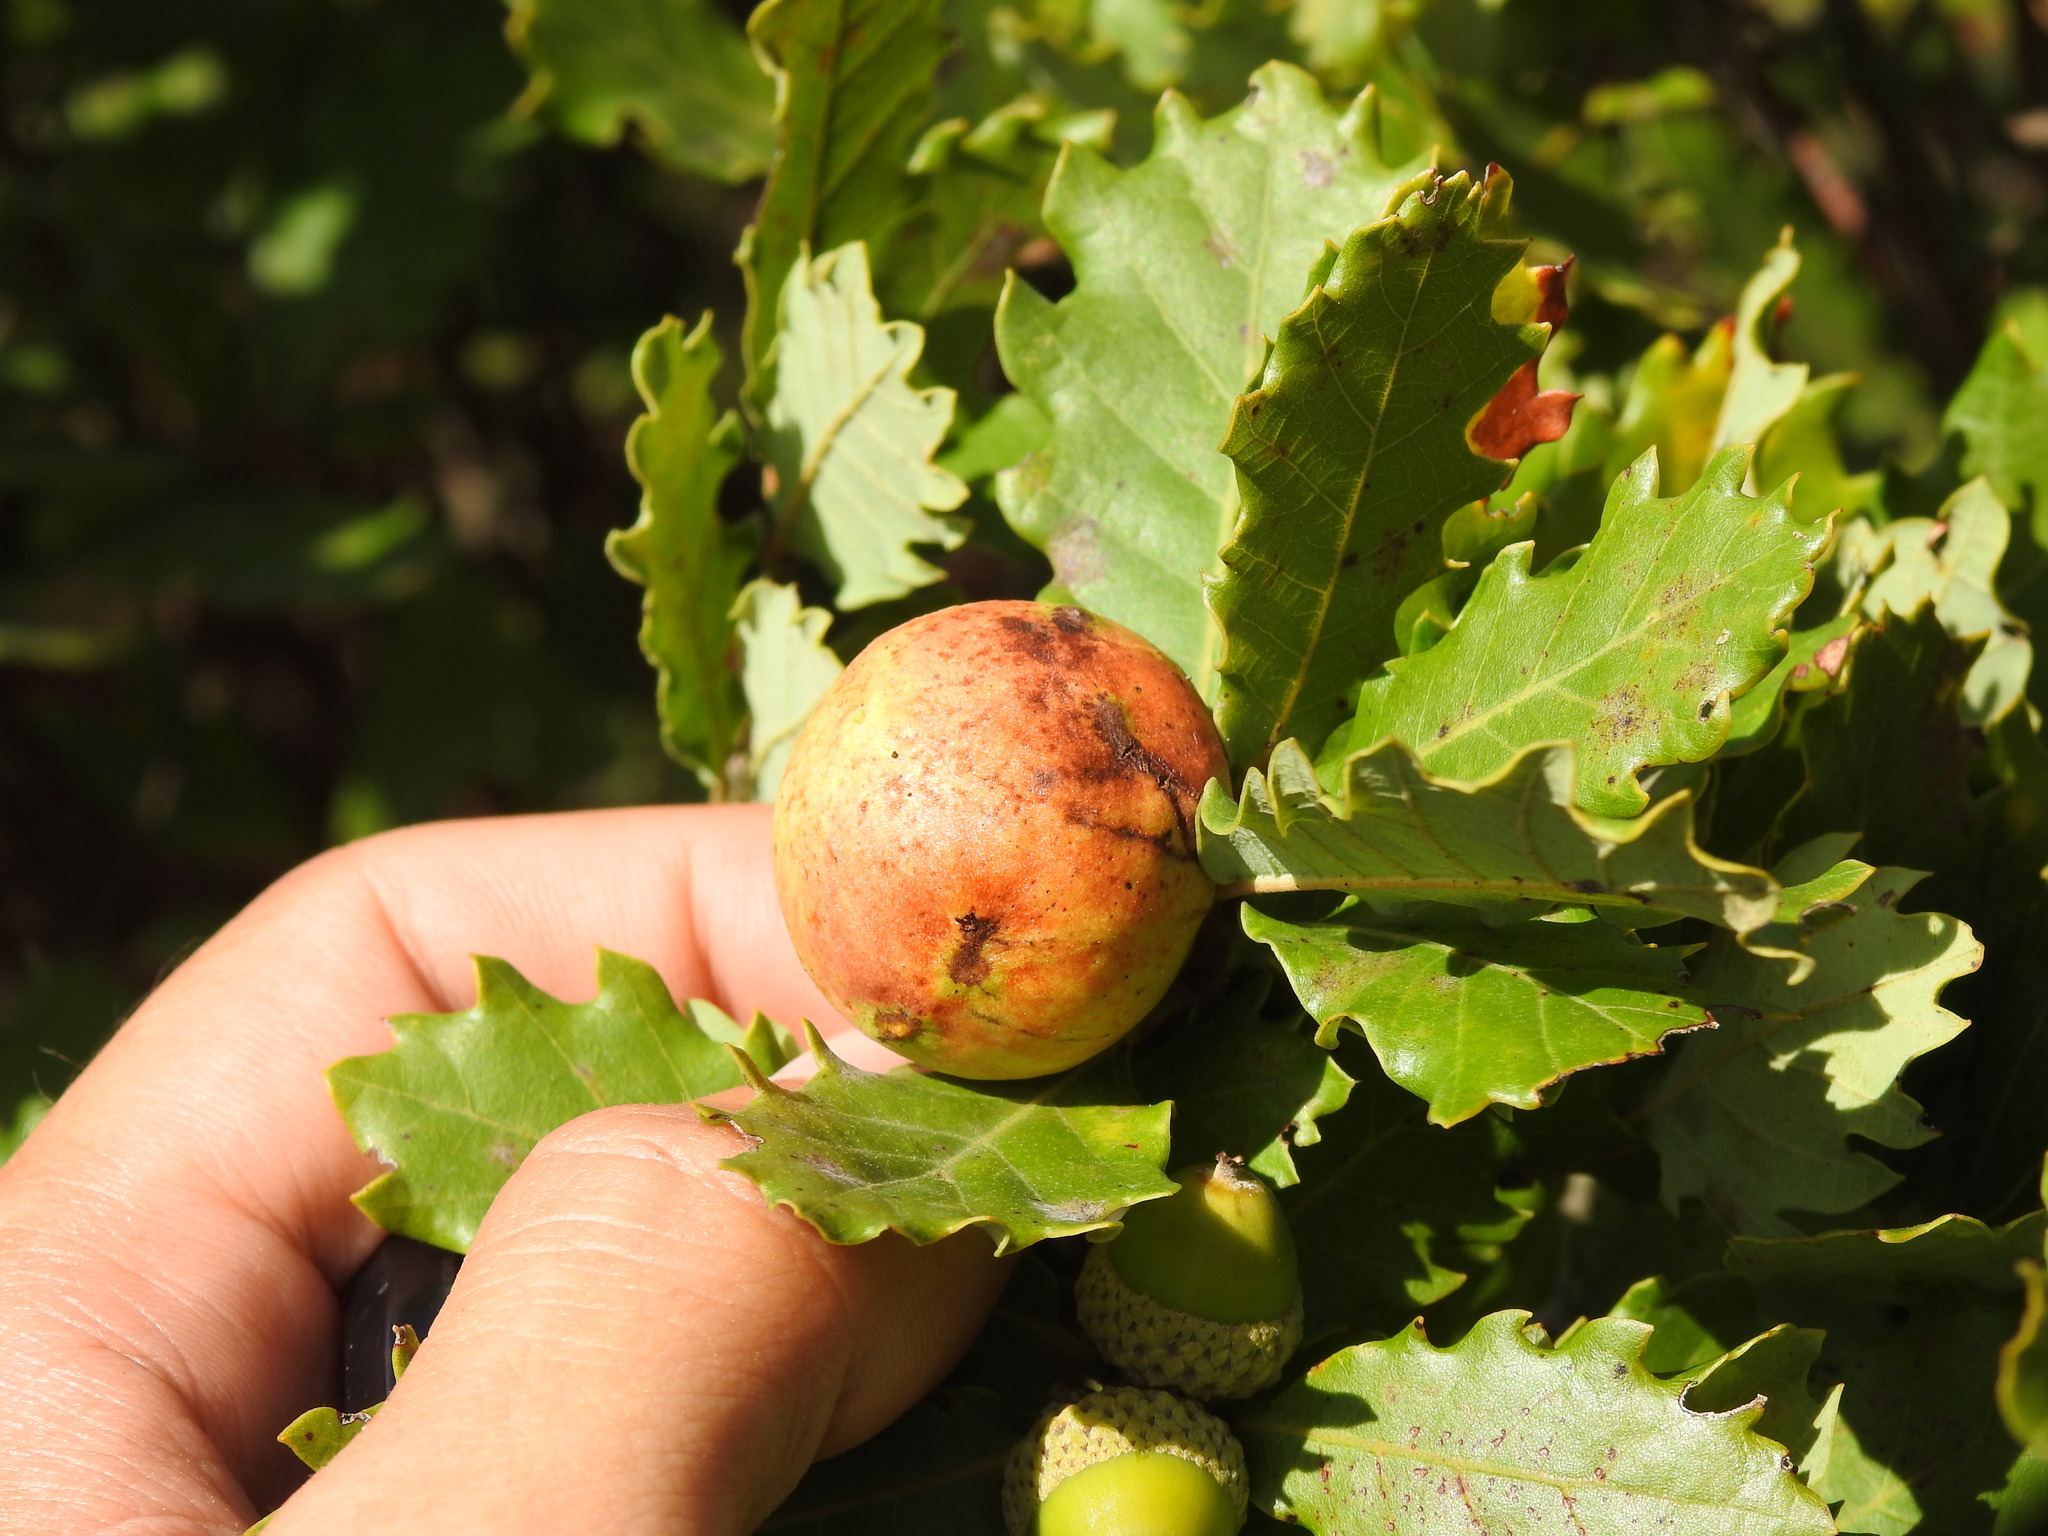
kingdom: Animalia
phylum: Arthropoda
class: Insecta
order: Hymenoptera
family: Cynipidae
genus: Andricus
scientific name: Andricus quercustozae
